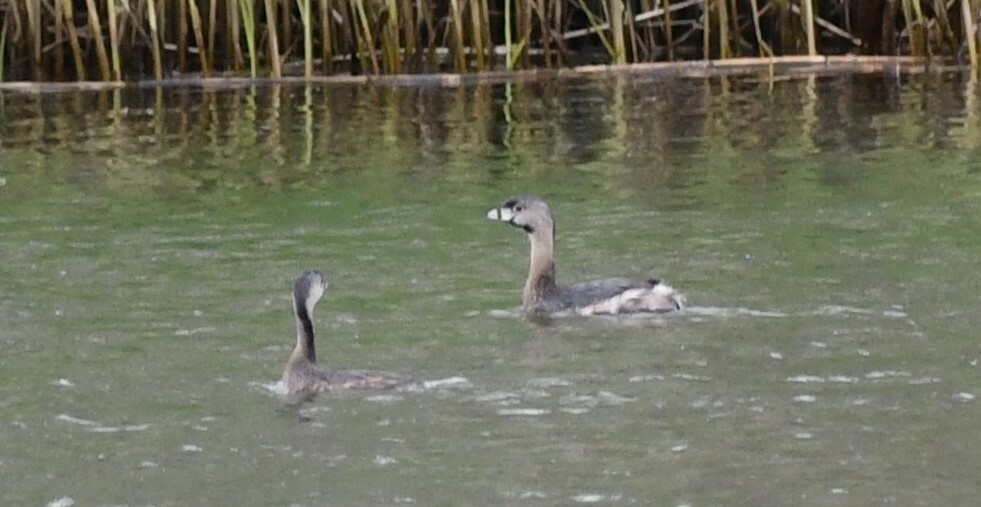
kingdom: Animalia
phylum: Chordata
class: Aves
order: Podicipediformes
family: Podicipedidae
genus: Podilymbus
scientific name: Podilymbus podiceps
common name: Pied-billed grebe
